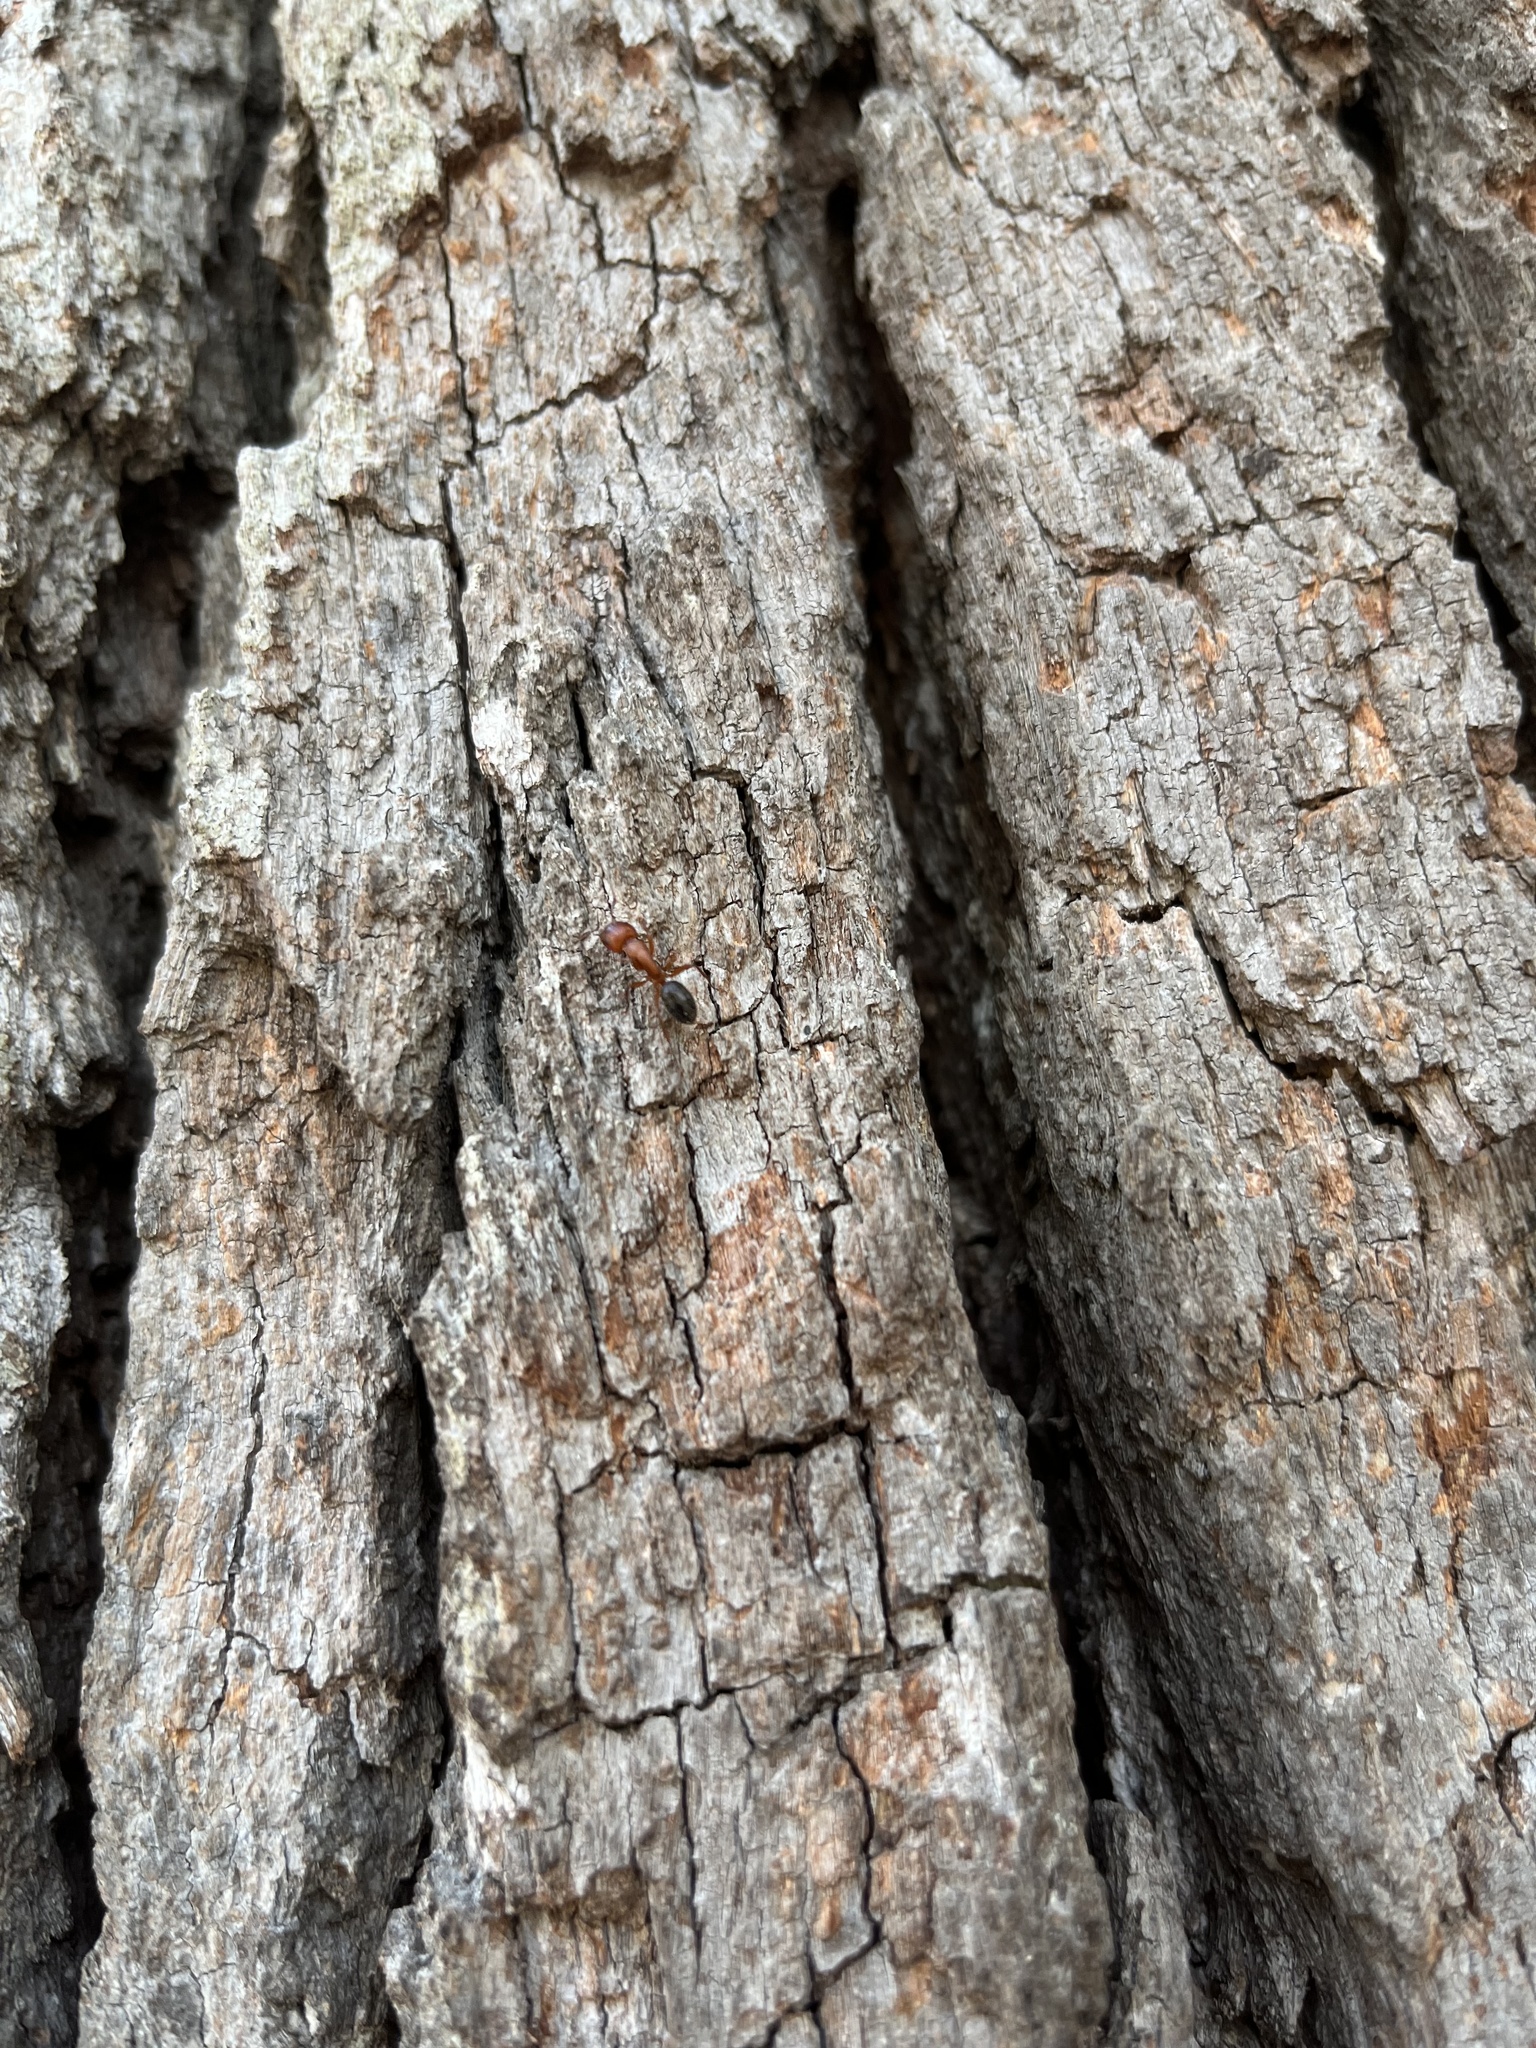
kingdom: Animalia
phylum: Arthropoda
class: Insecta
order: Hymenoptera
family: Formicidae
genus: Camponotus
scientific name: Camponotus decipiens
